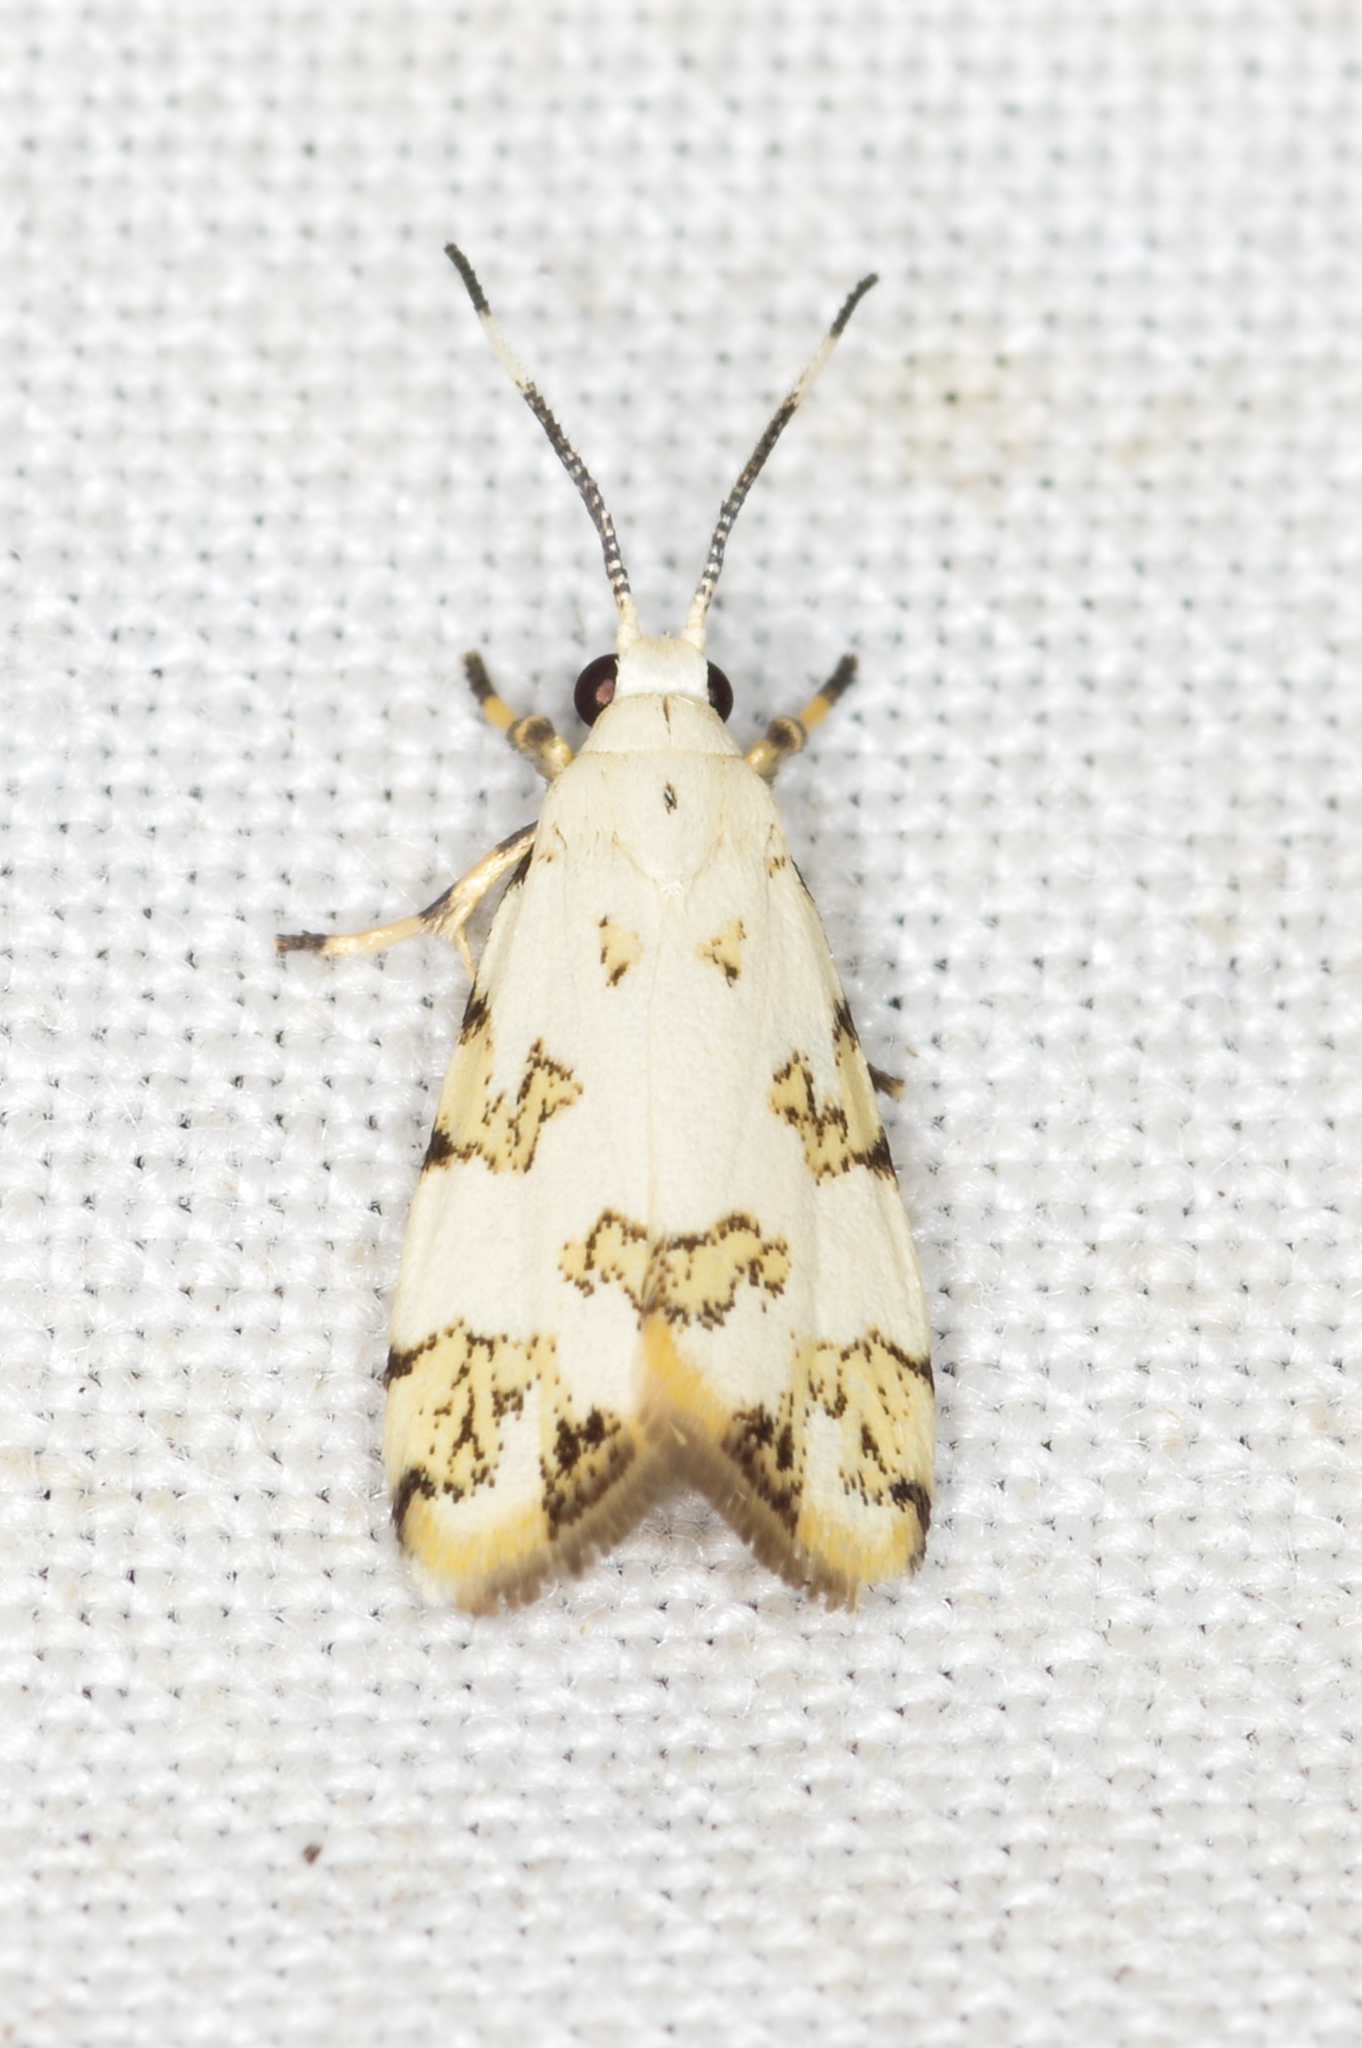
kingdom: Animalia
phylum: Arthropoda
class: Insecta
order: Lepidoptera
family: Erebidae
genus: Prepiella
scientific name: Prepiella strigipennis
